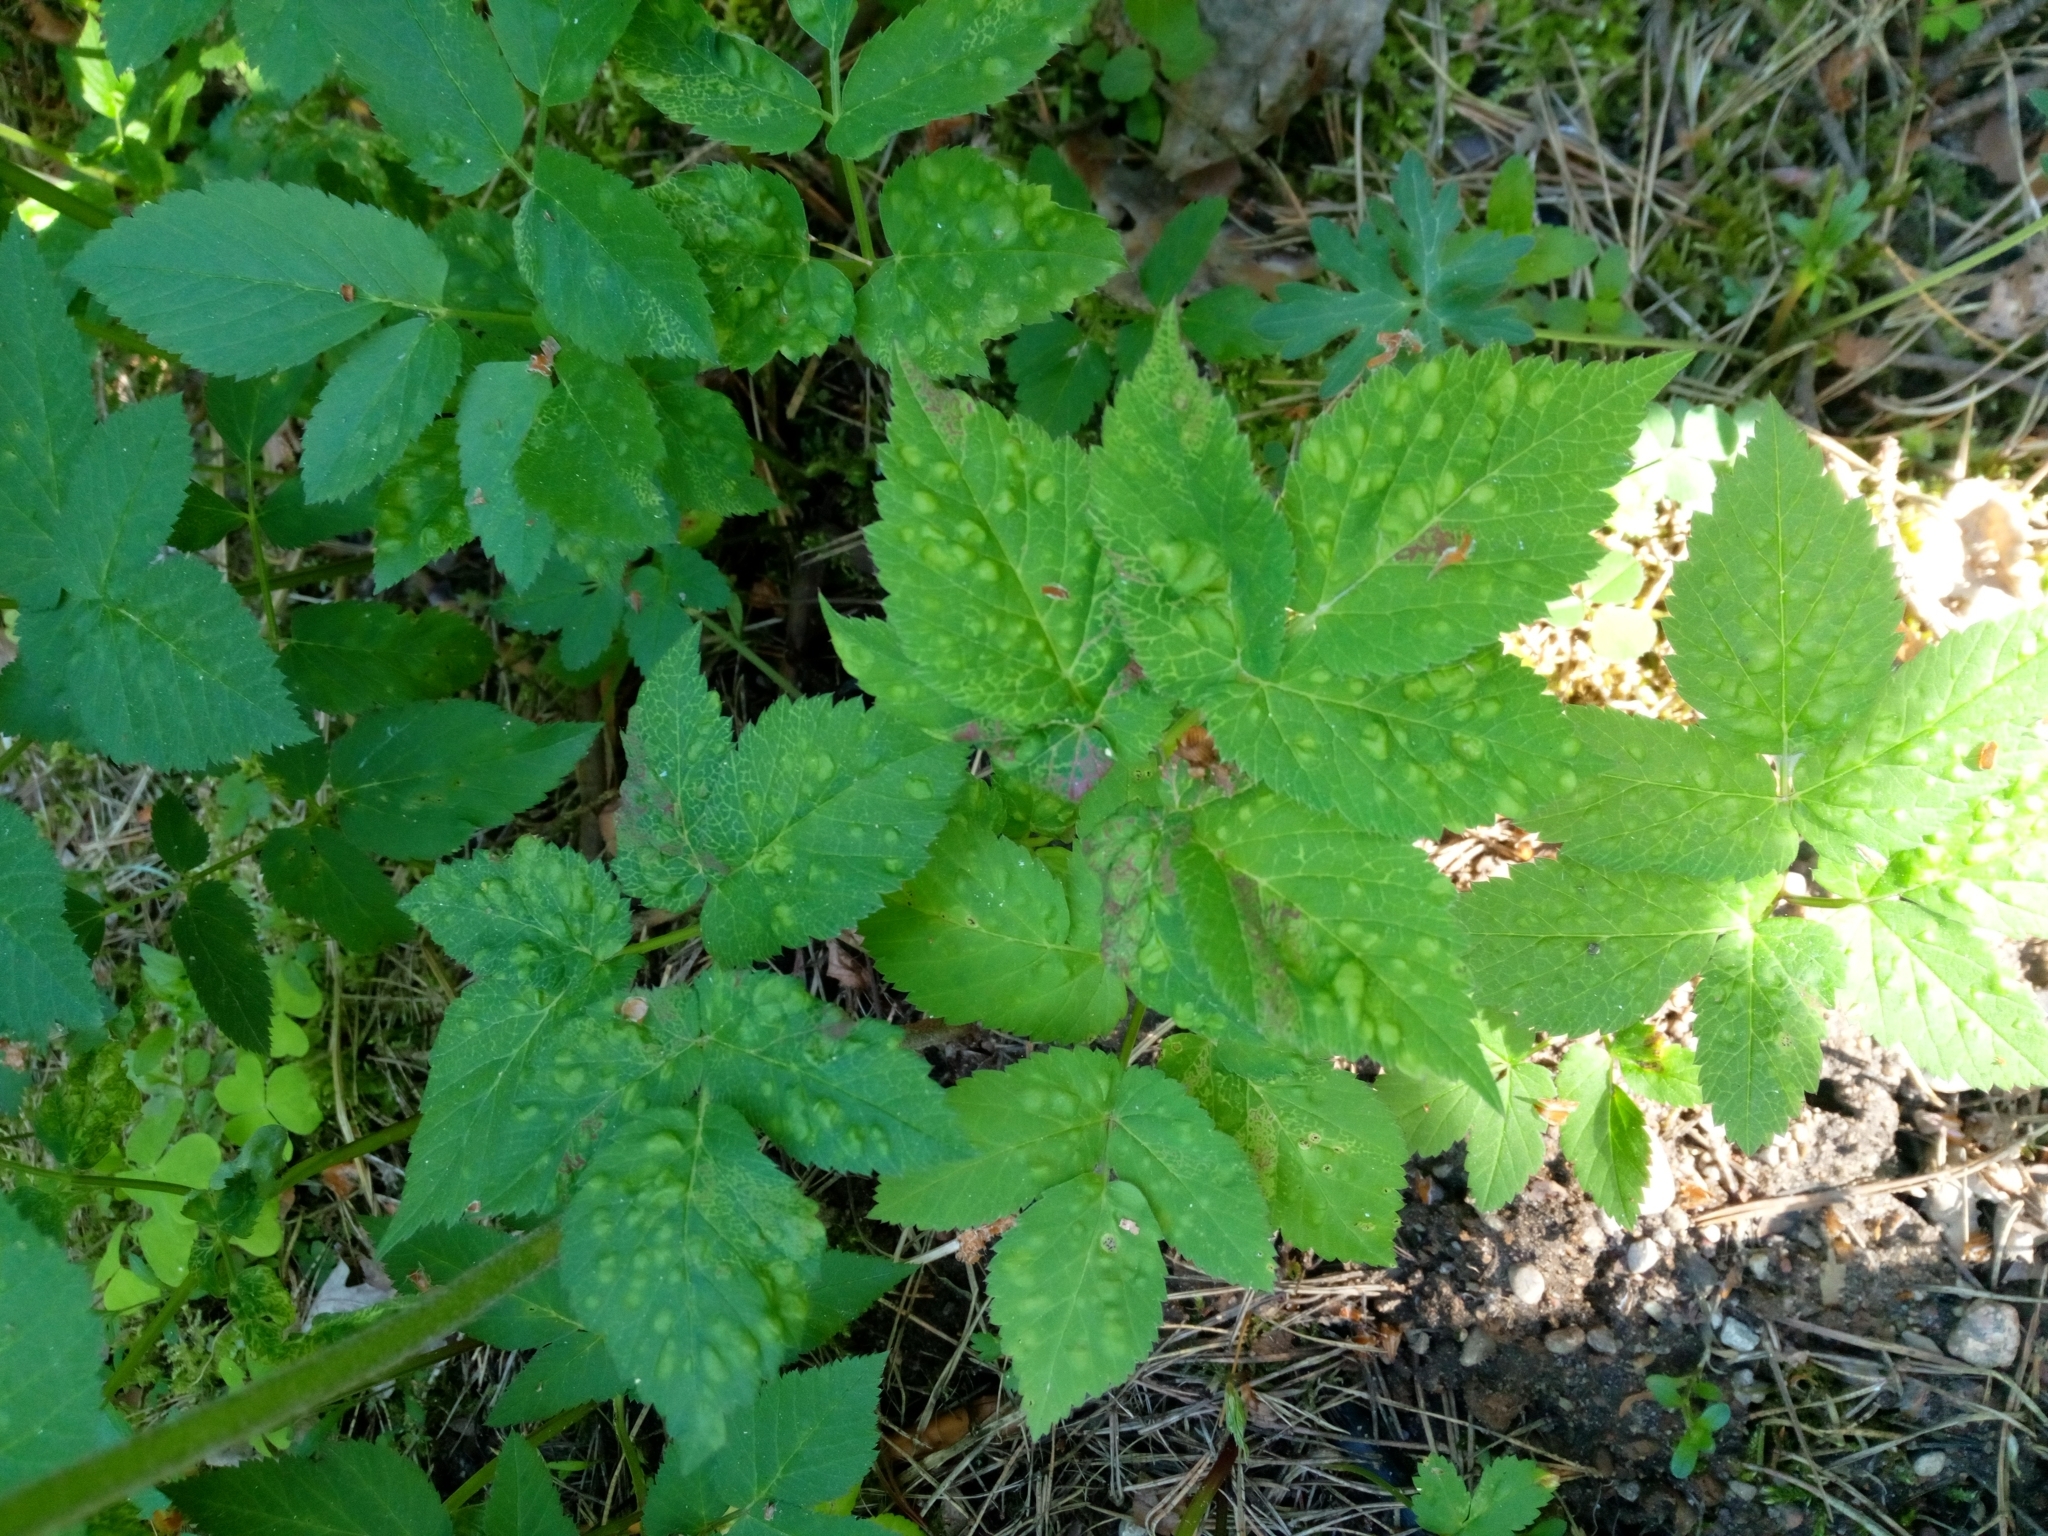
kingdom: Plantae
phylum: Tracheophyta
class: Magnoliopsida
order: Apiales
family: Apiaceae
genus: Aegopodium
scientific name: Aegopodium podagraria
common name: Ground-elder
